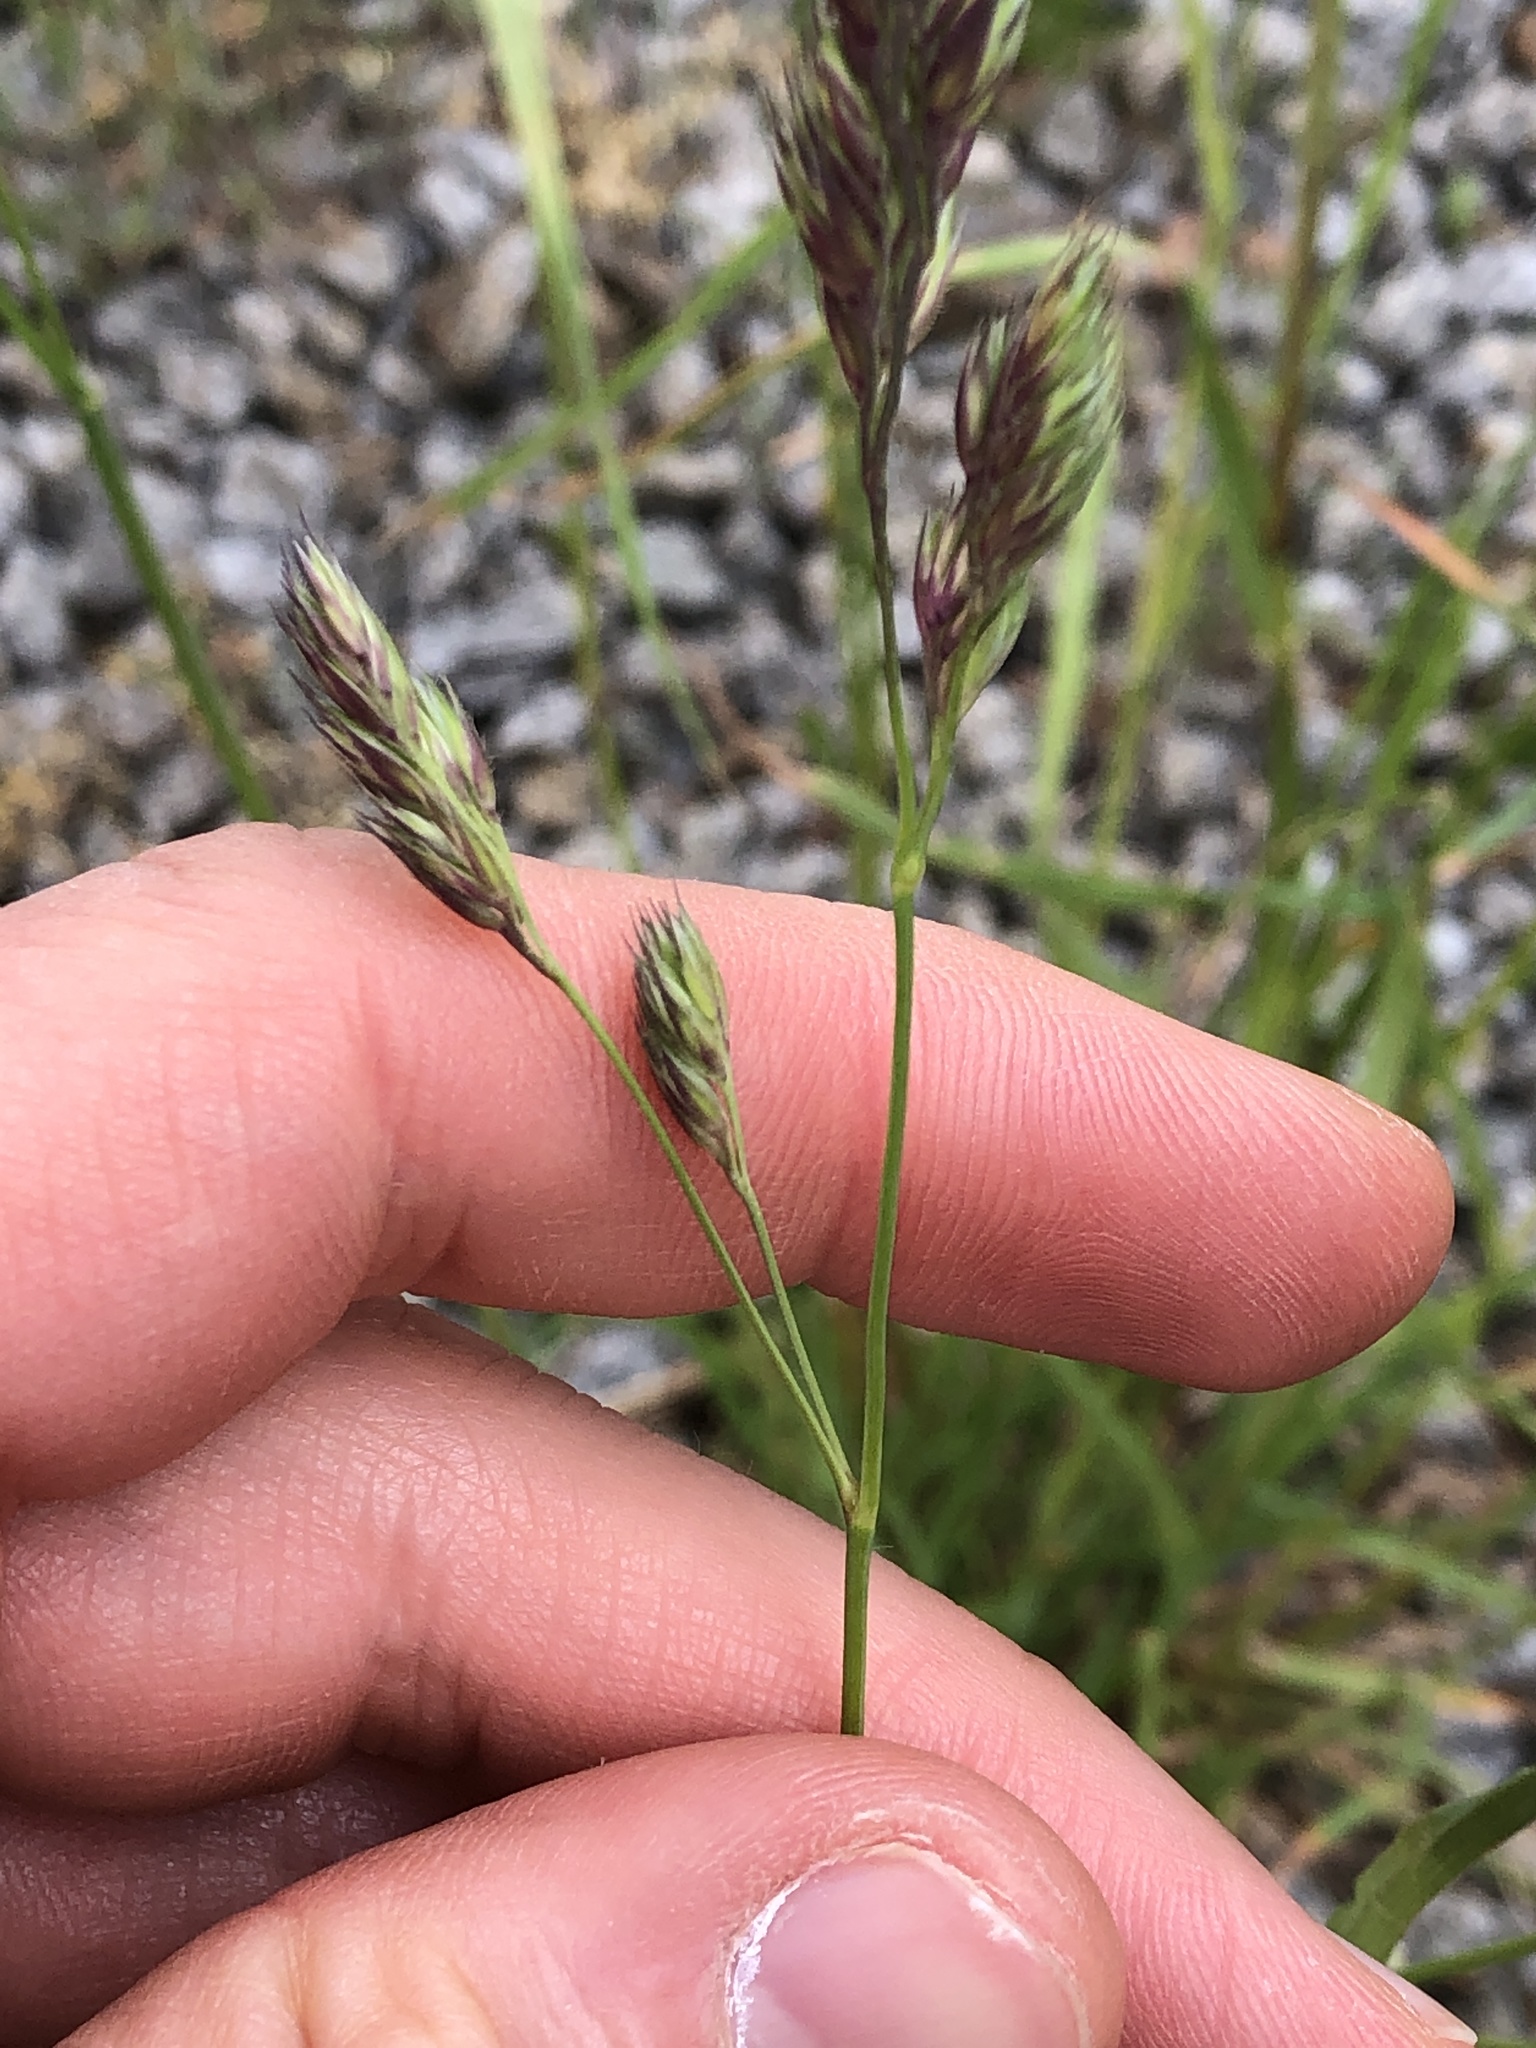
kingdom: Plantae
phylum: Tracheophyta
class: Liliopsida
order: Poales
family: Poaceae
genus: Dactylis
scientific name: Dactylis glomerata
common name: Orchardgrass
